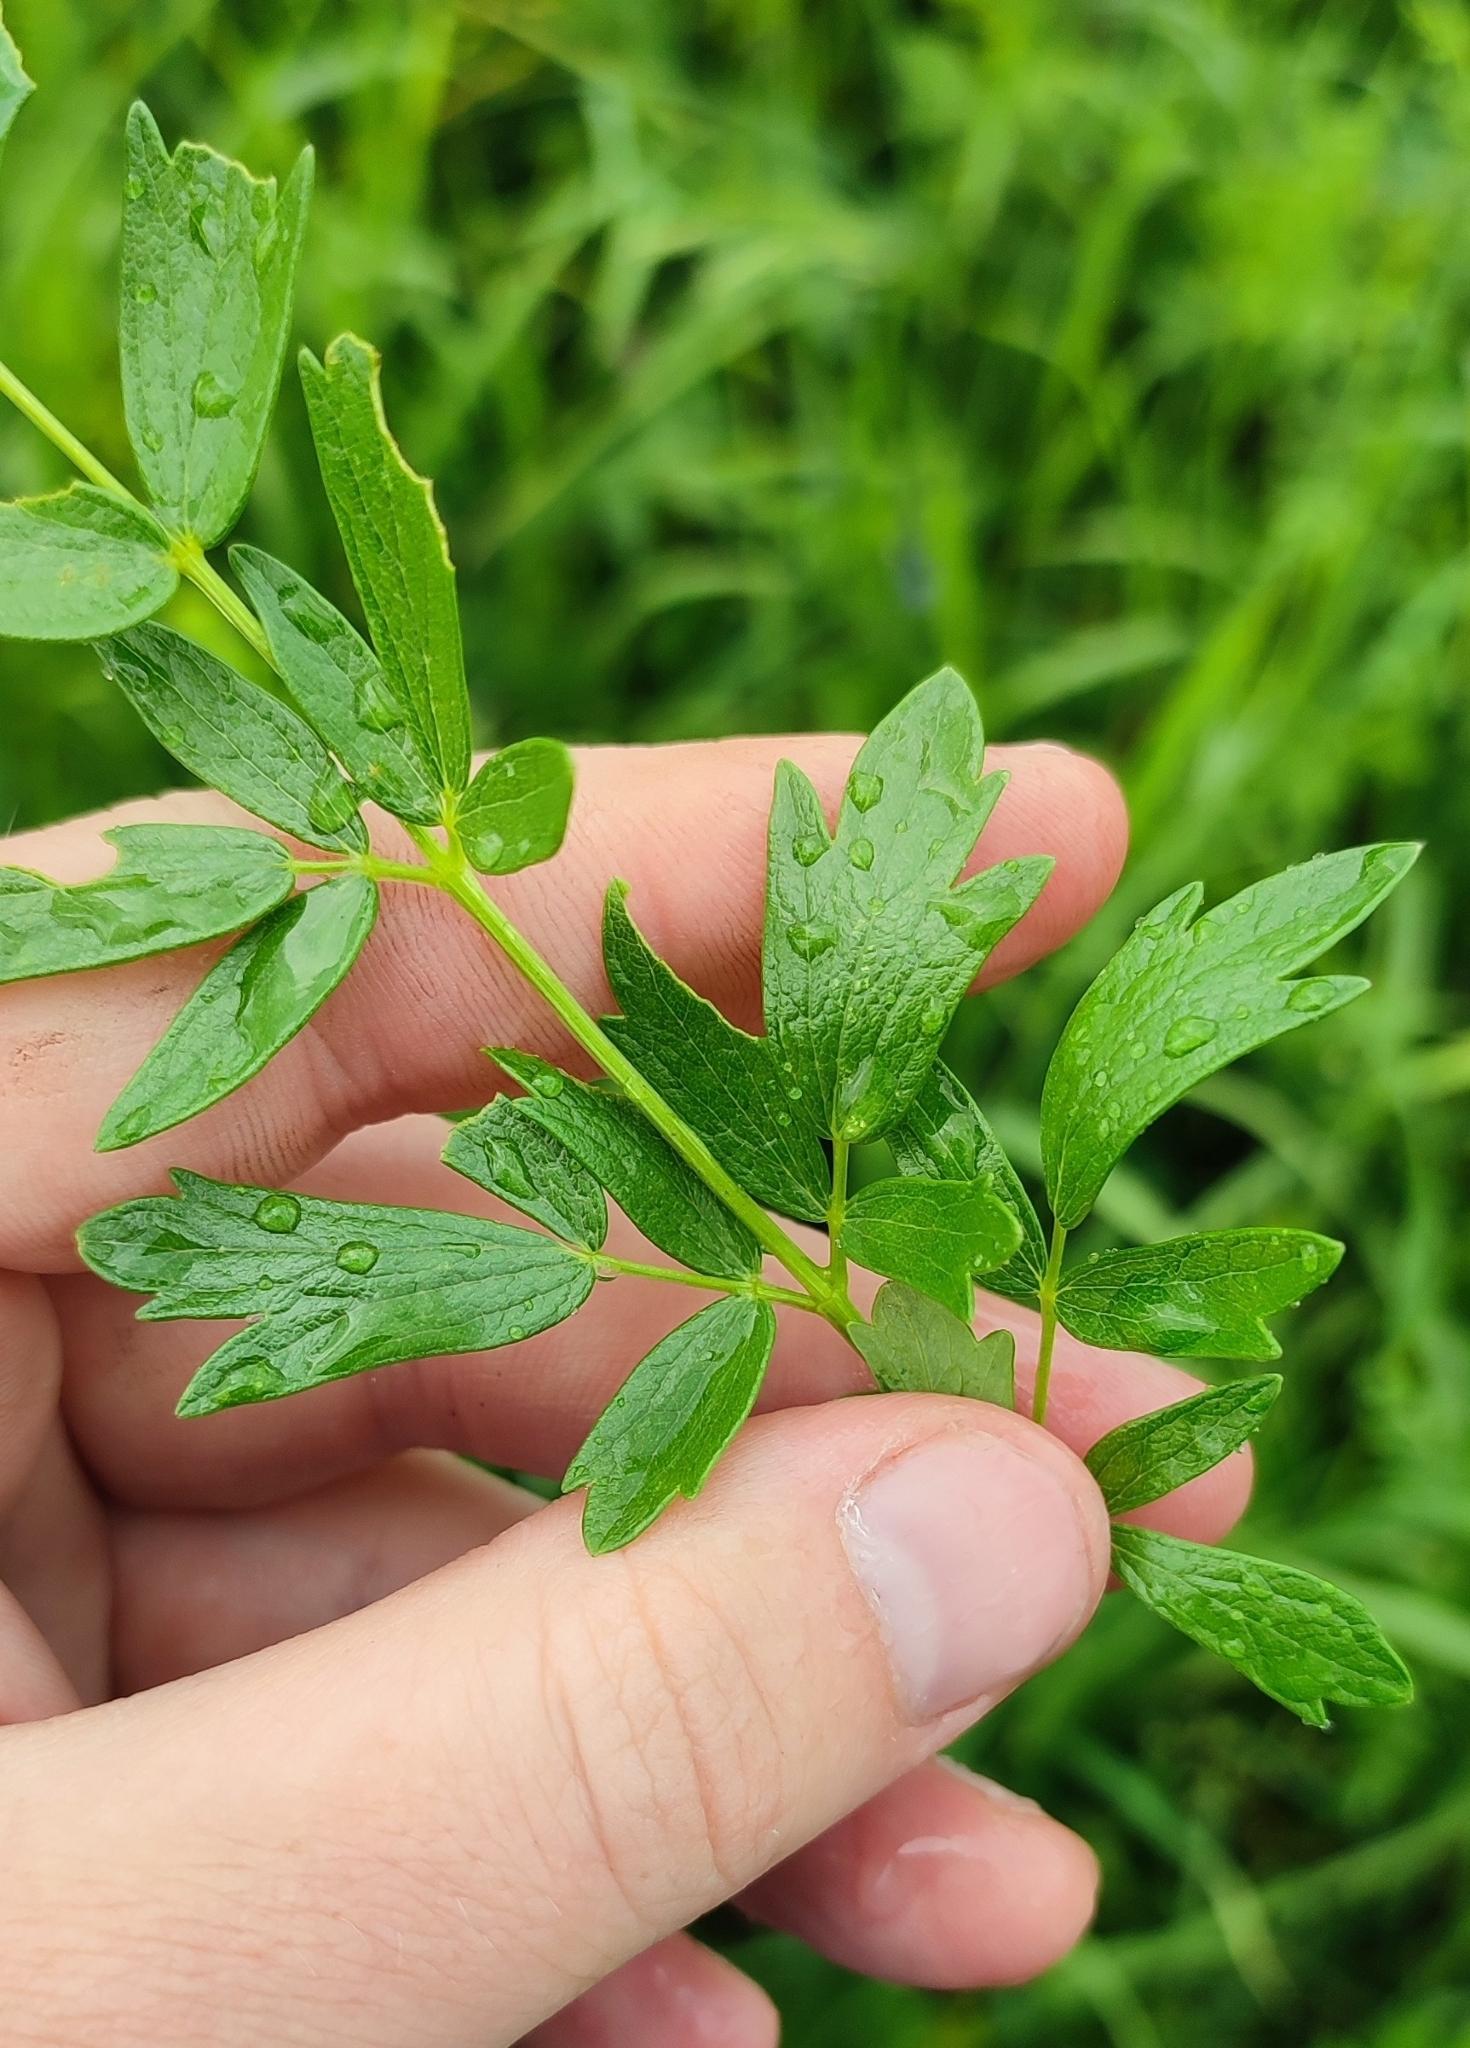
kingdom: Plantae
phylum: Tracheophyta
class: Magnoliopsida
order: Ranunculales
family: Ranunculaceae
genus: Thalictrum
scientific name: Thalictrum simplex
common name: Small meadow-rue
